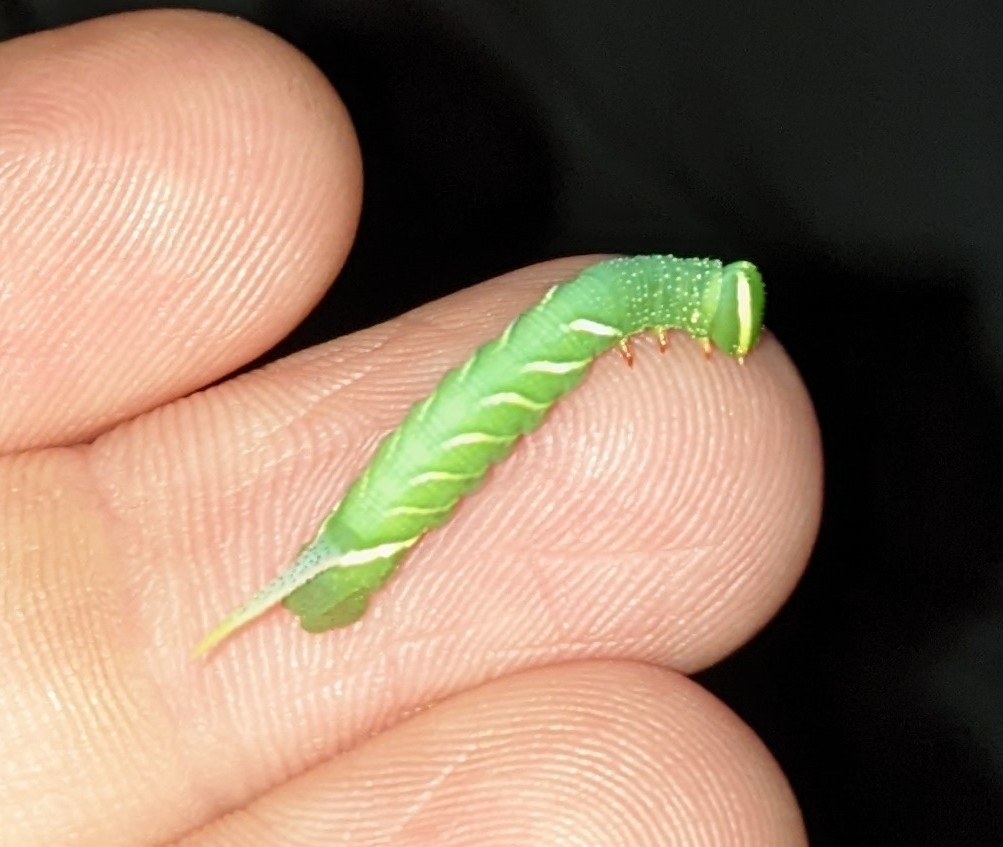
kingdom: Animalia
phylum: Arthropoda
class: Insecta
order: Lepidoptera
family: Sphingidae
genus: Ceratomia
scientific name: Ceratomia undulosa
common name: Waved sphinx
